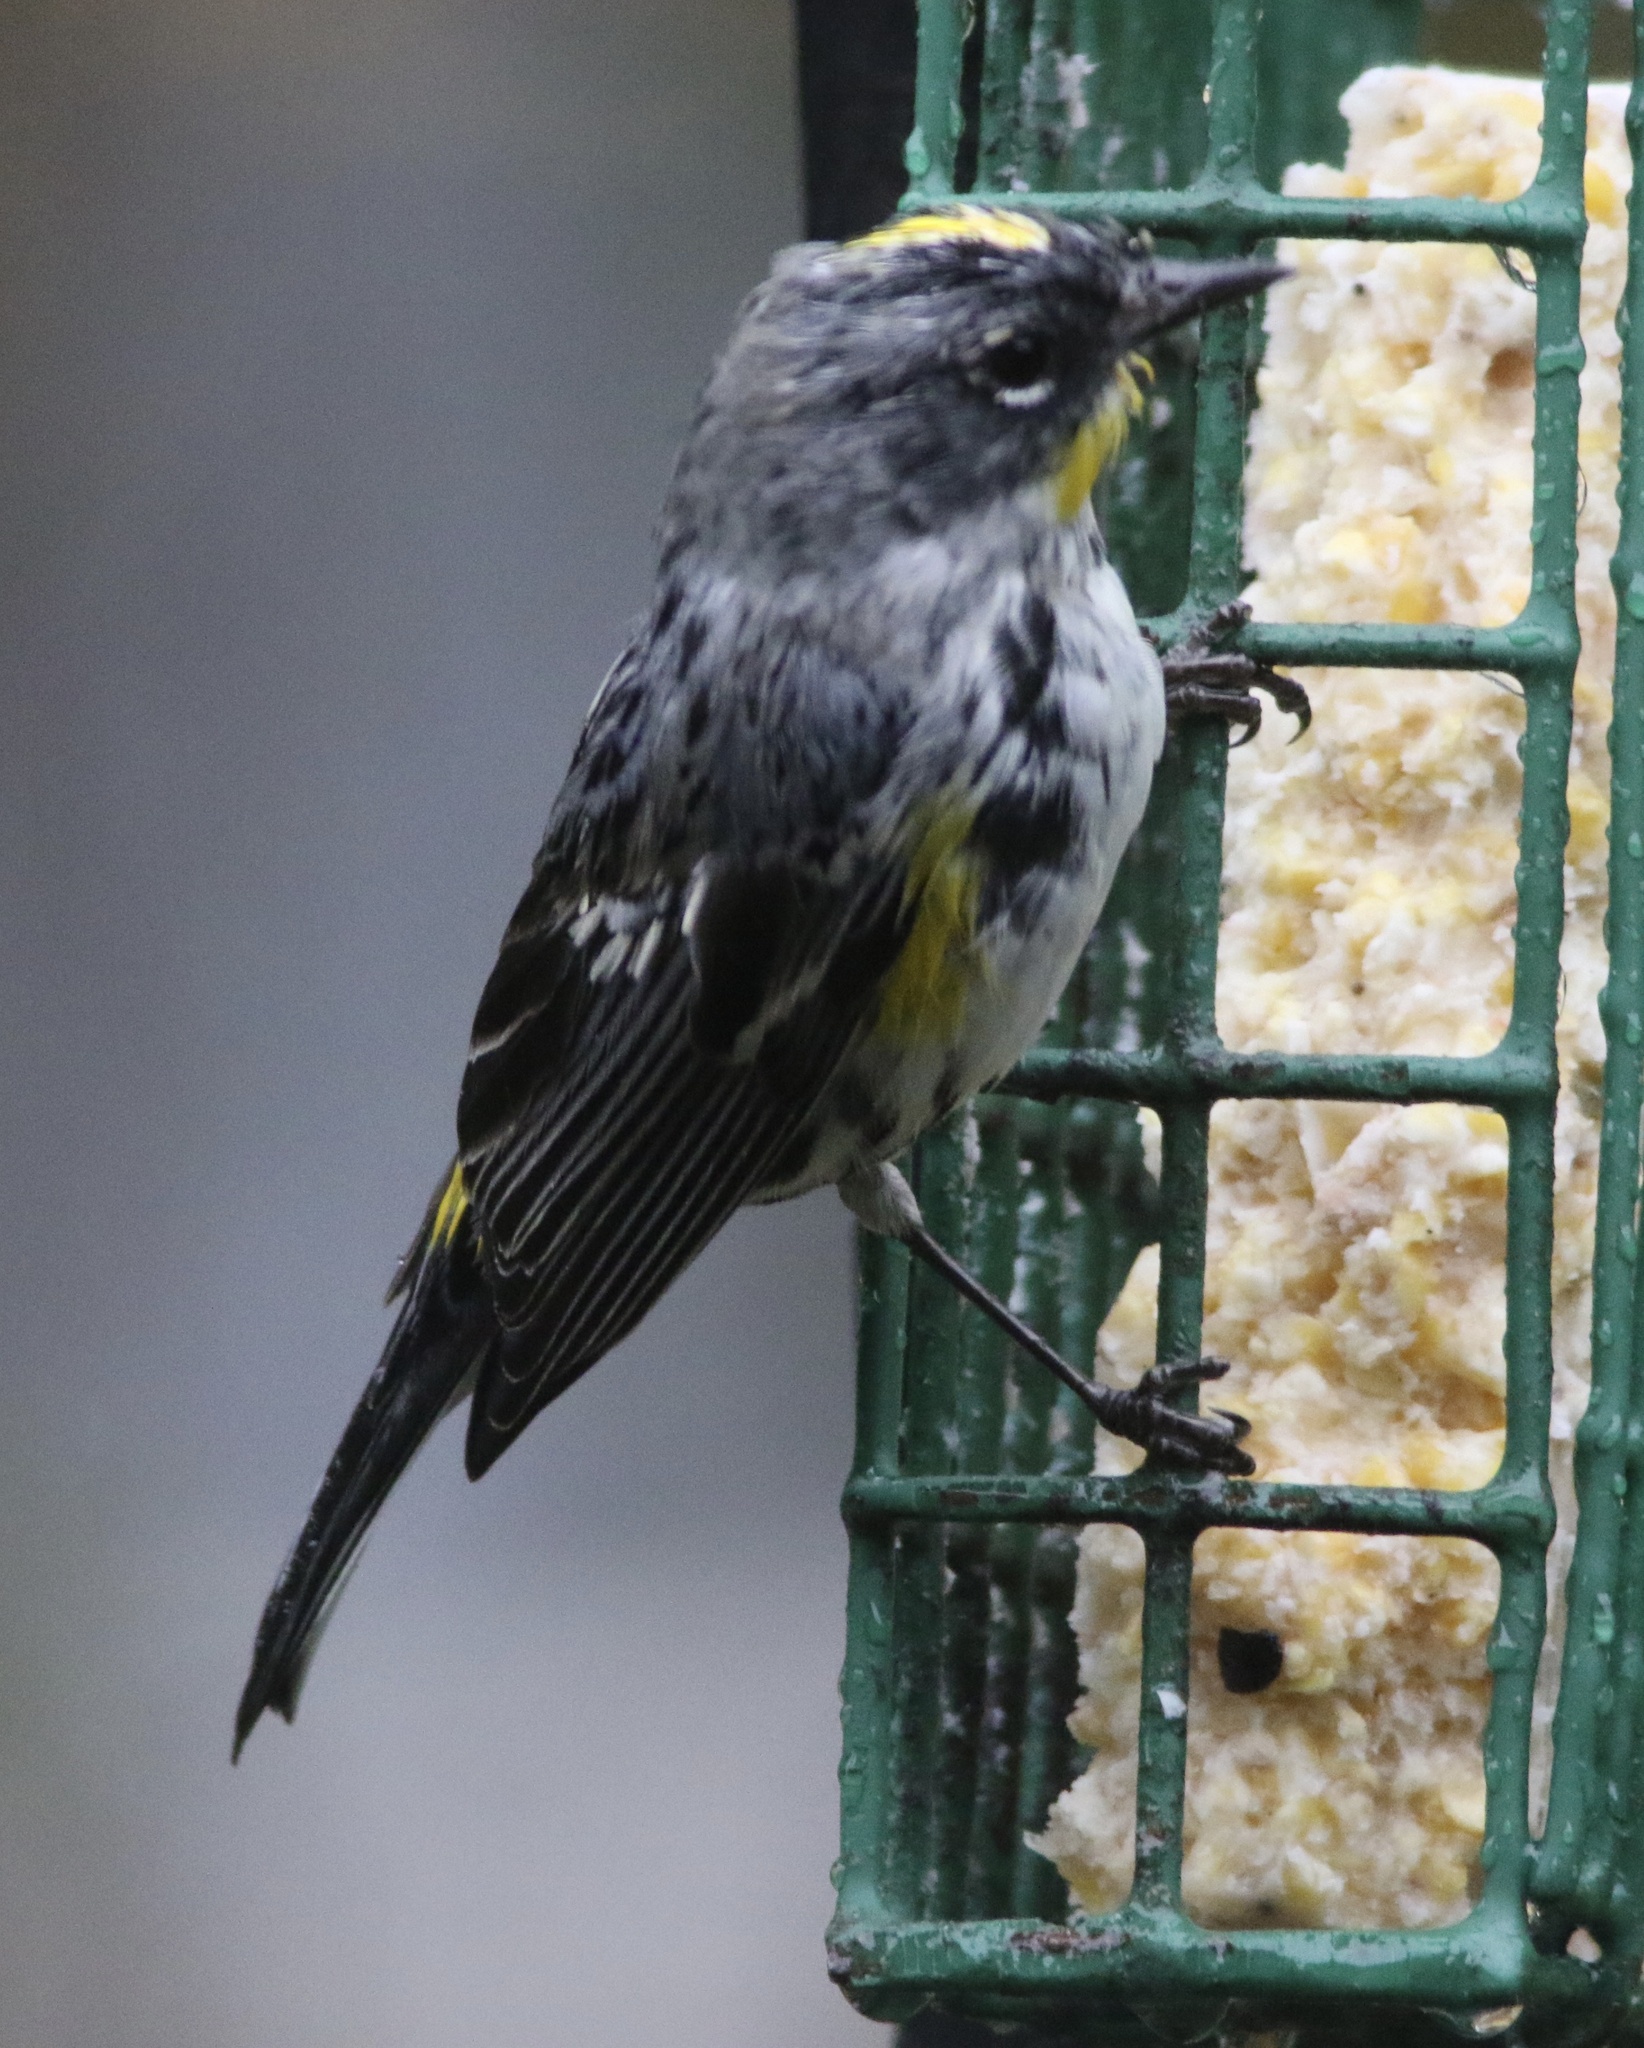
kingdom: Animalia
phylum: Chordata
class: Aves
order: Passeriformes
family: Parulidae
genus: Setophaga
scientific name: Setophaga coronata
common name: Myrtle warbler
